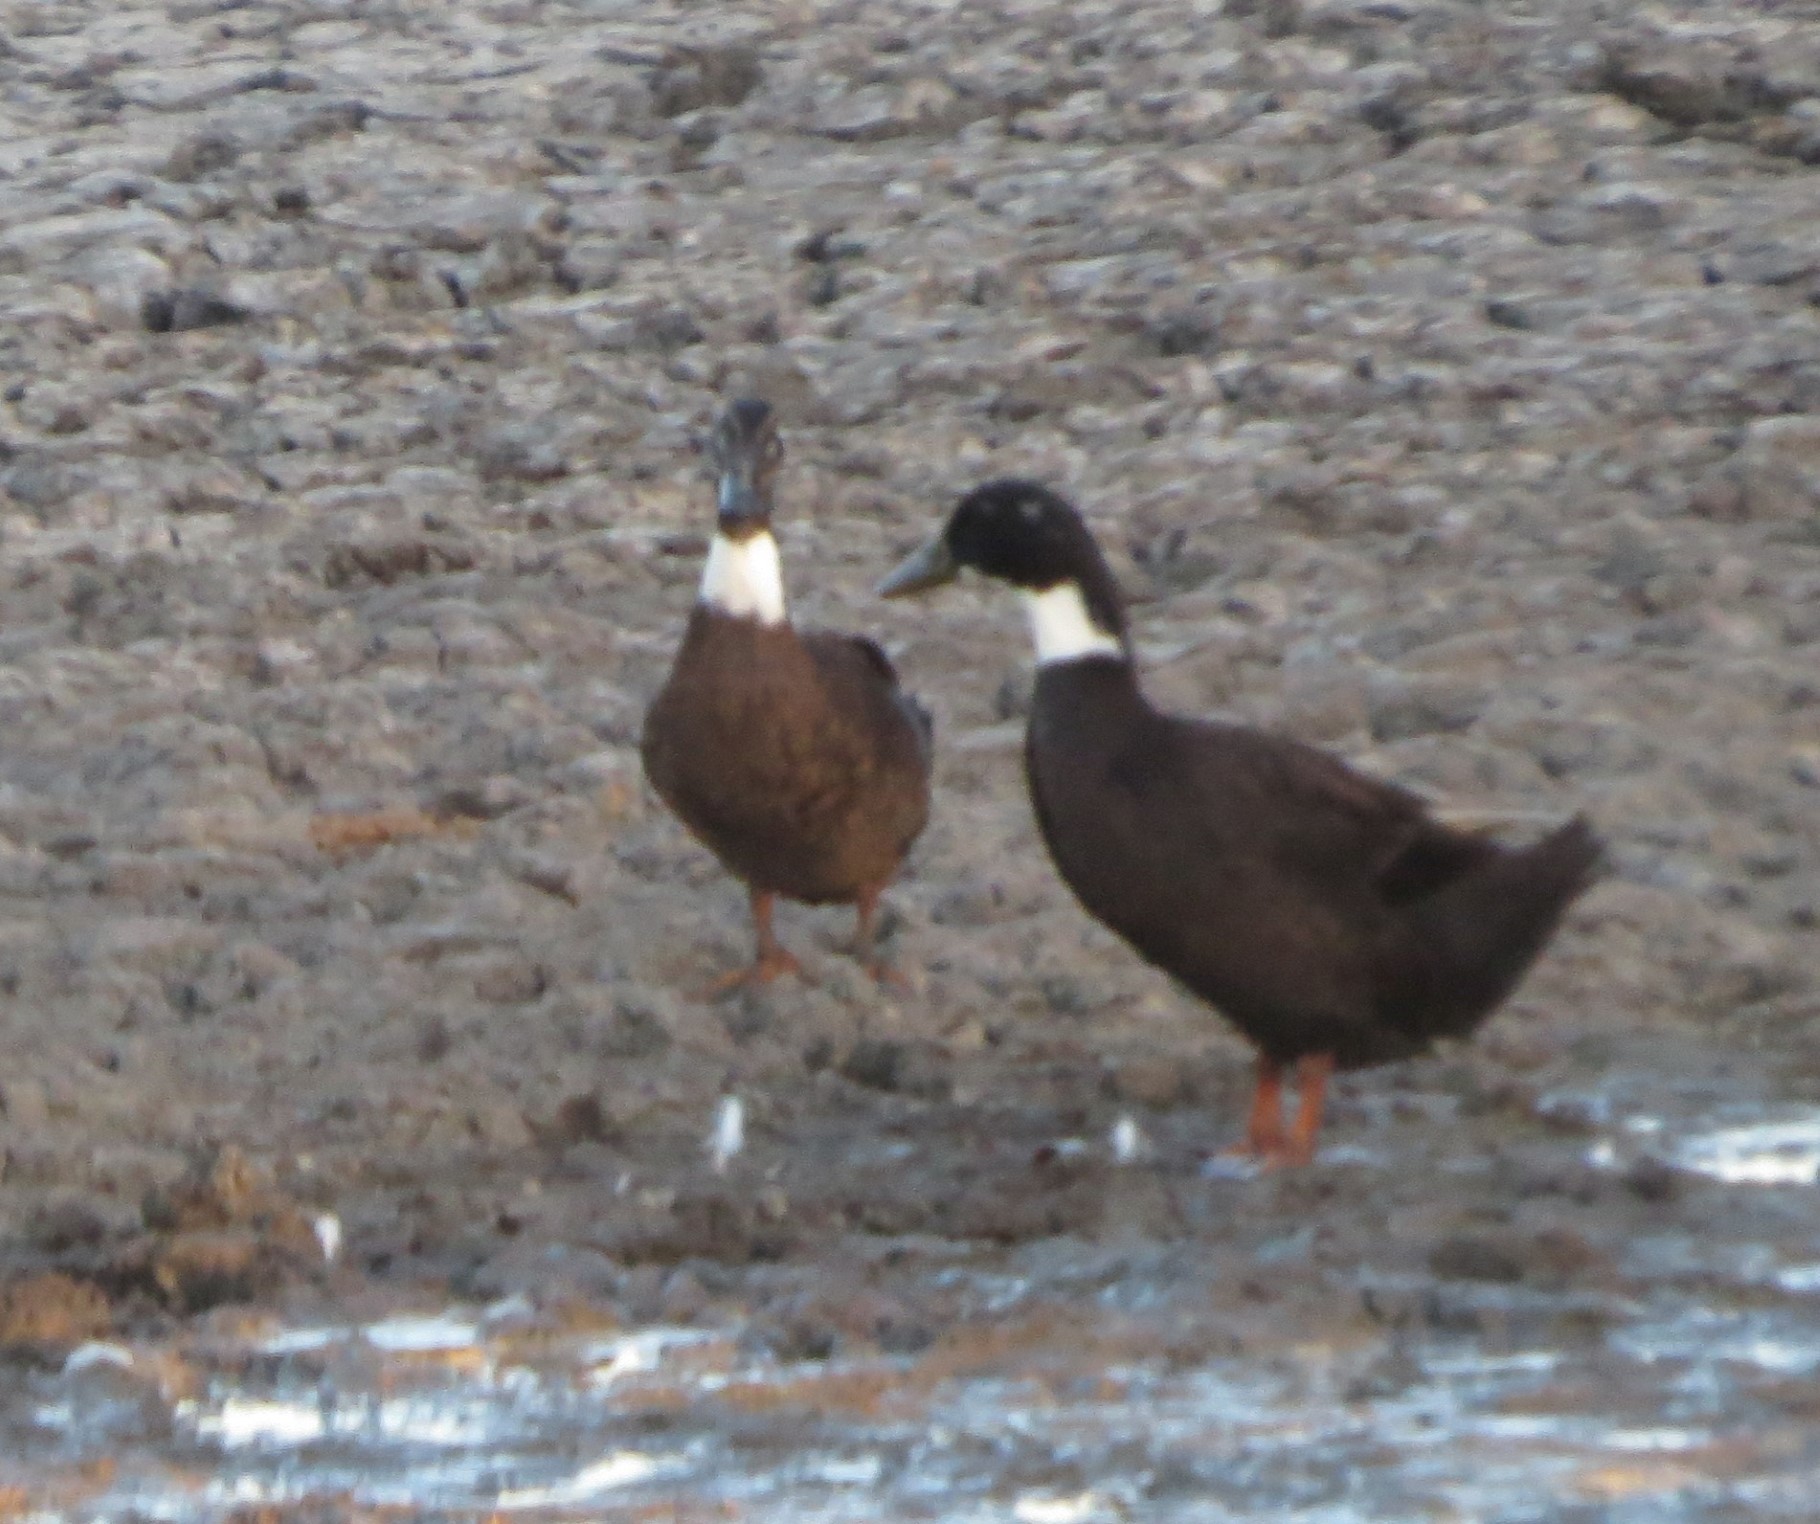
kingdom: Animalia
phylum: Chordata
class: Aves
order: Anseriformes
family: Anatidae
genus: Anas
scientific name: Anas platyrhynchos
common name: Mallard
